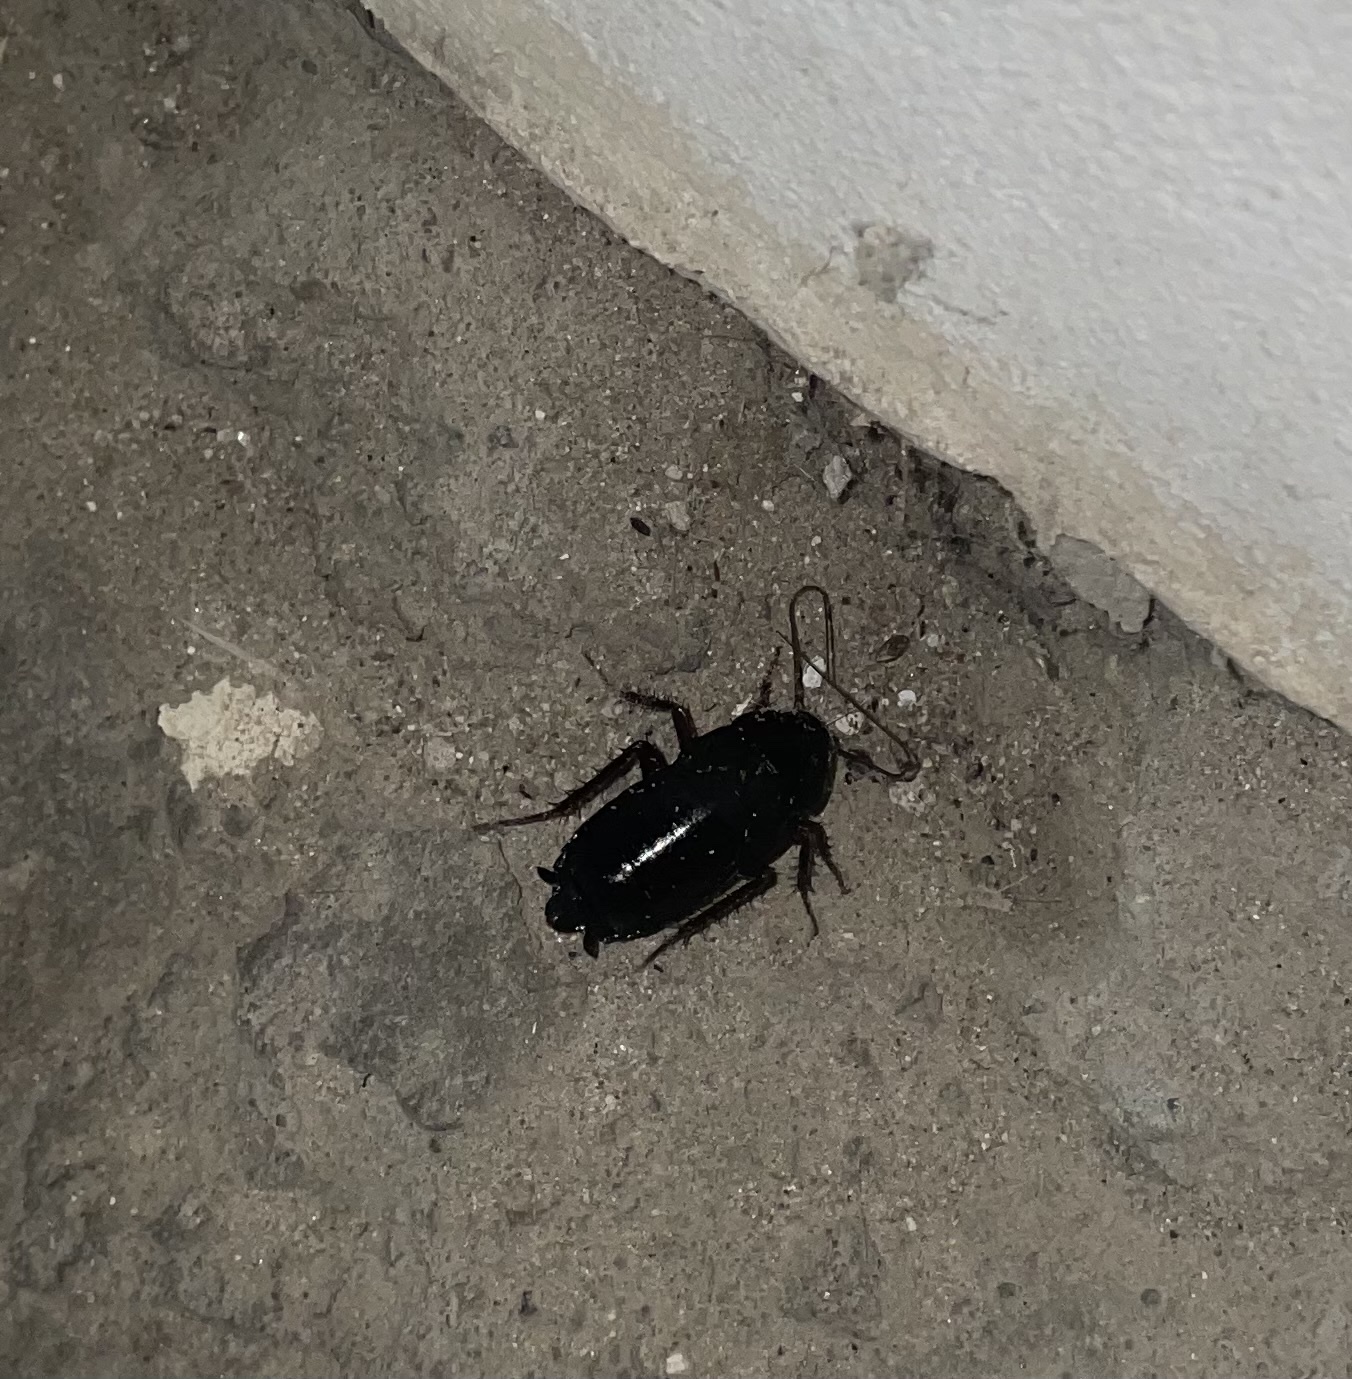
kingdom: Animalia
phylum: Arthropoda
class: Insecta
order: Blattodea
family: Blattidae
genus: Blatta
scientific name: Blatta orientalis
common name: Oriental cockroach
